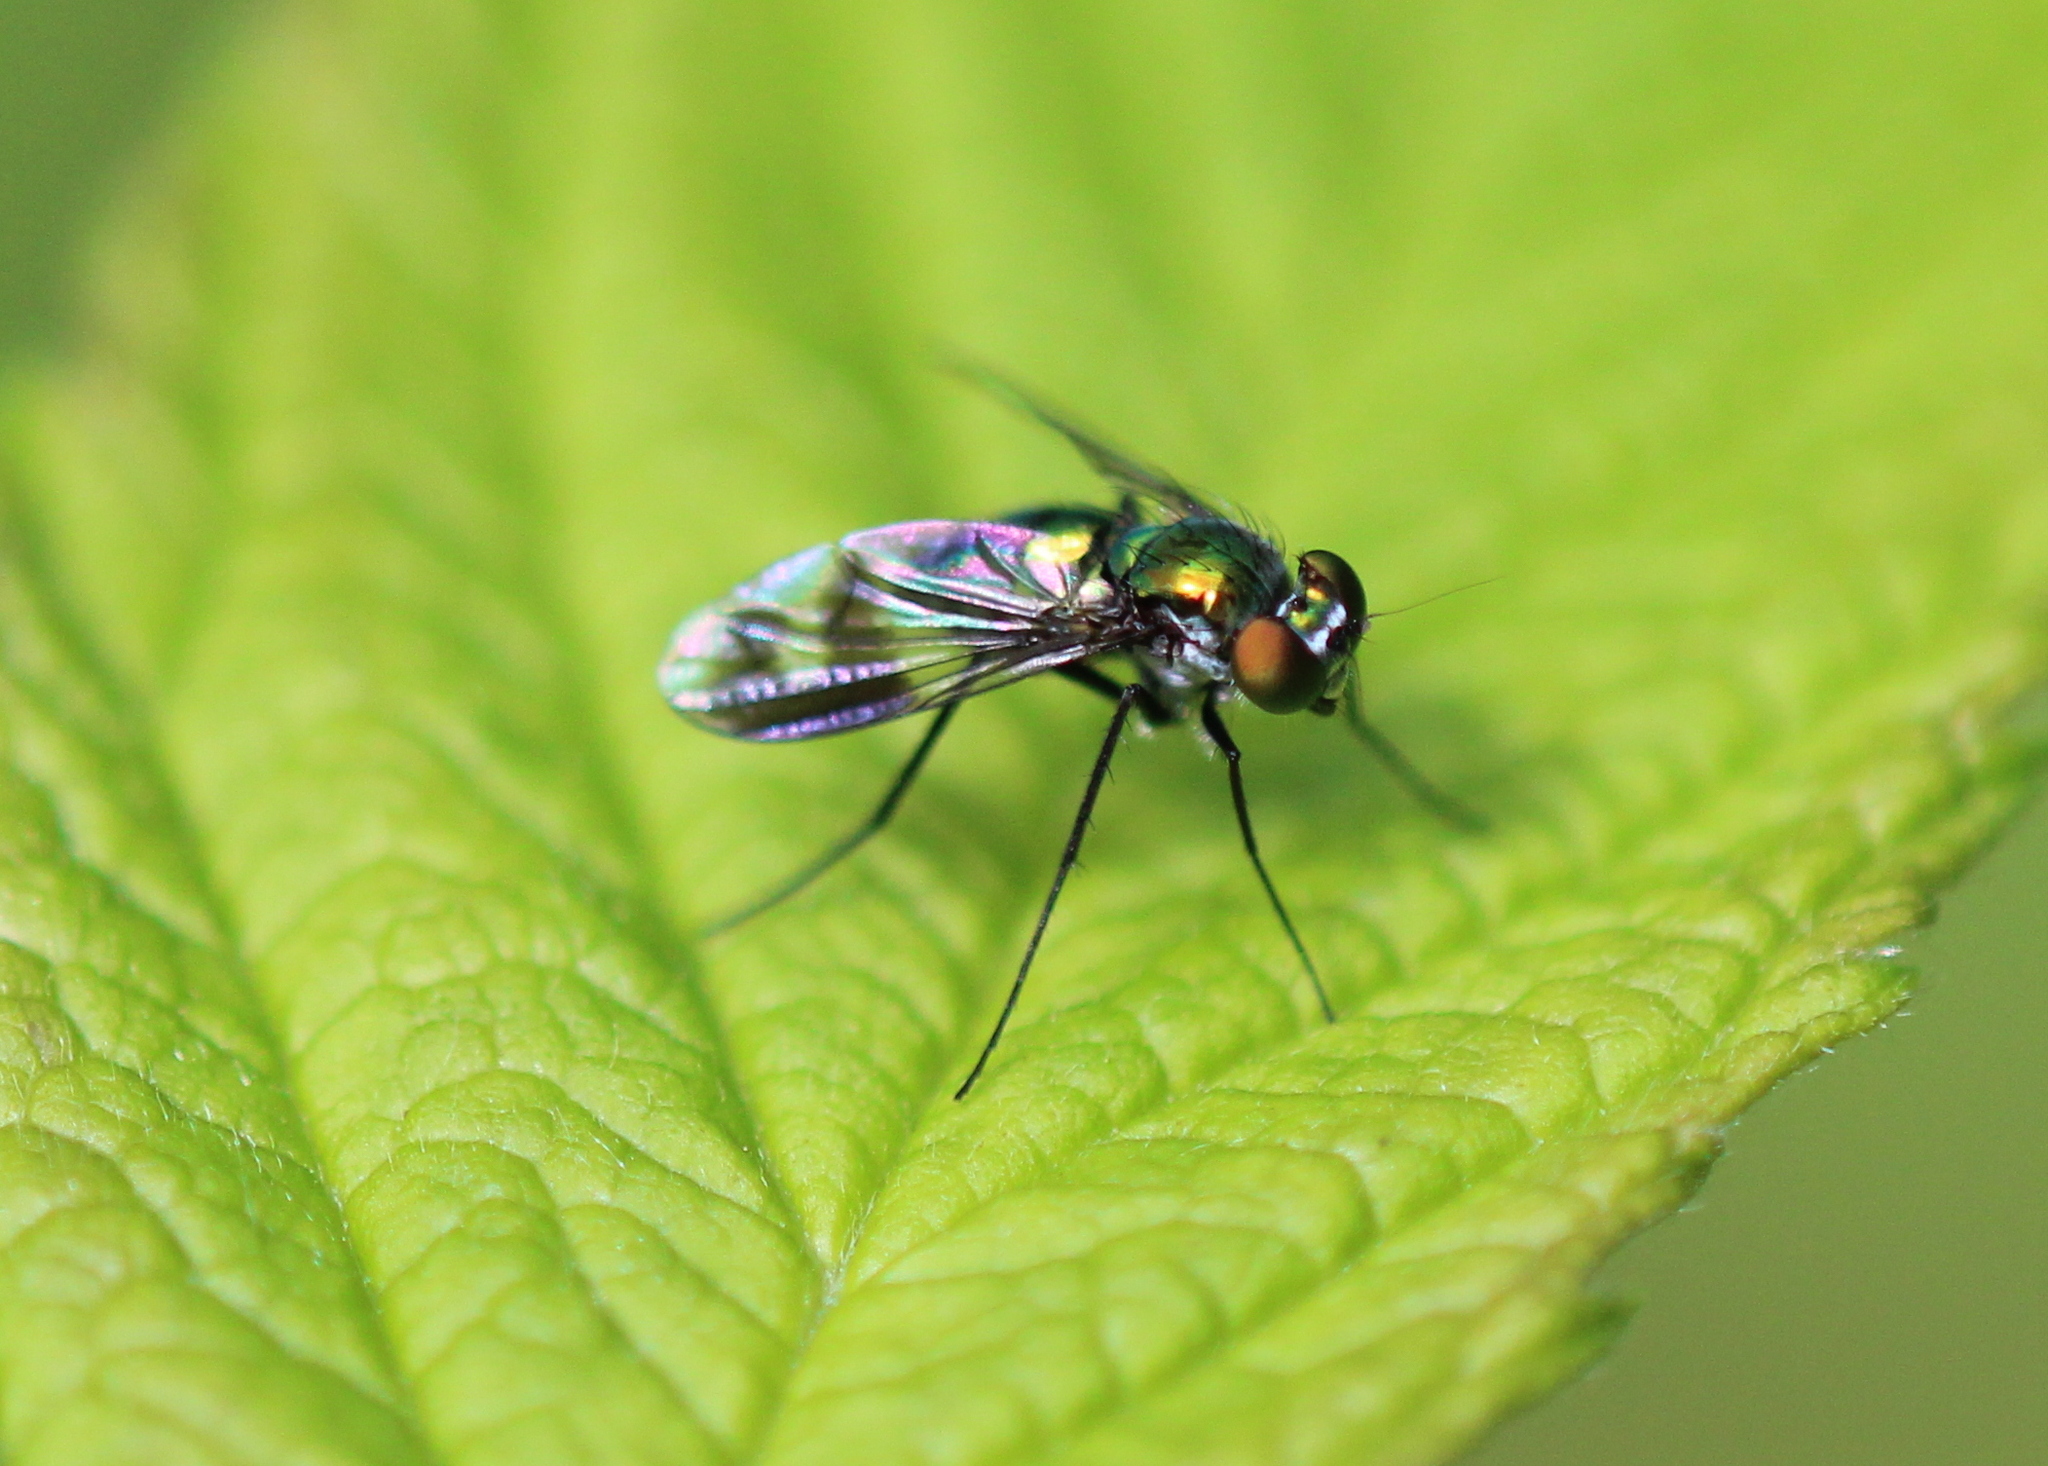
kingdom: Animalia
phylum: Arthropoda
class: Insecta
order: Diptera
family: Dolichopodidae
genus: Condylostylus
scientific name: Condylostylus patibulatus
